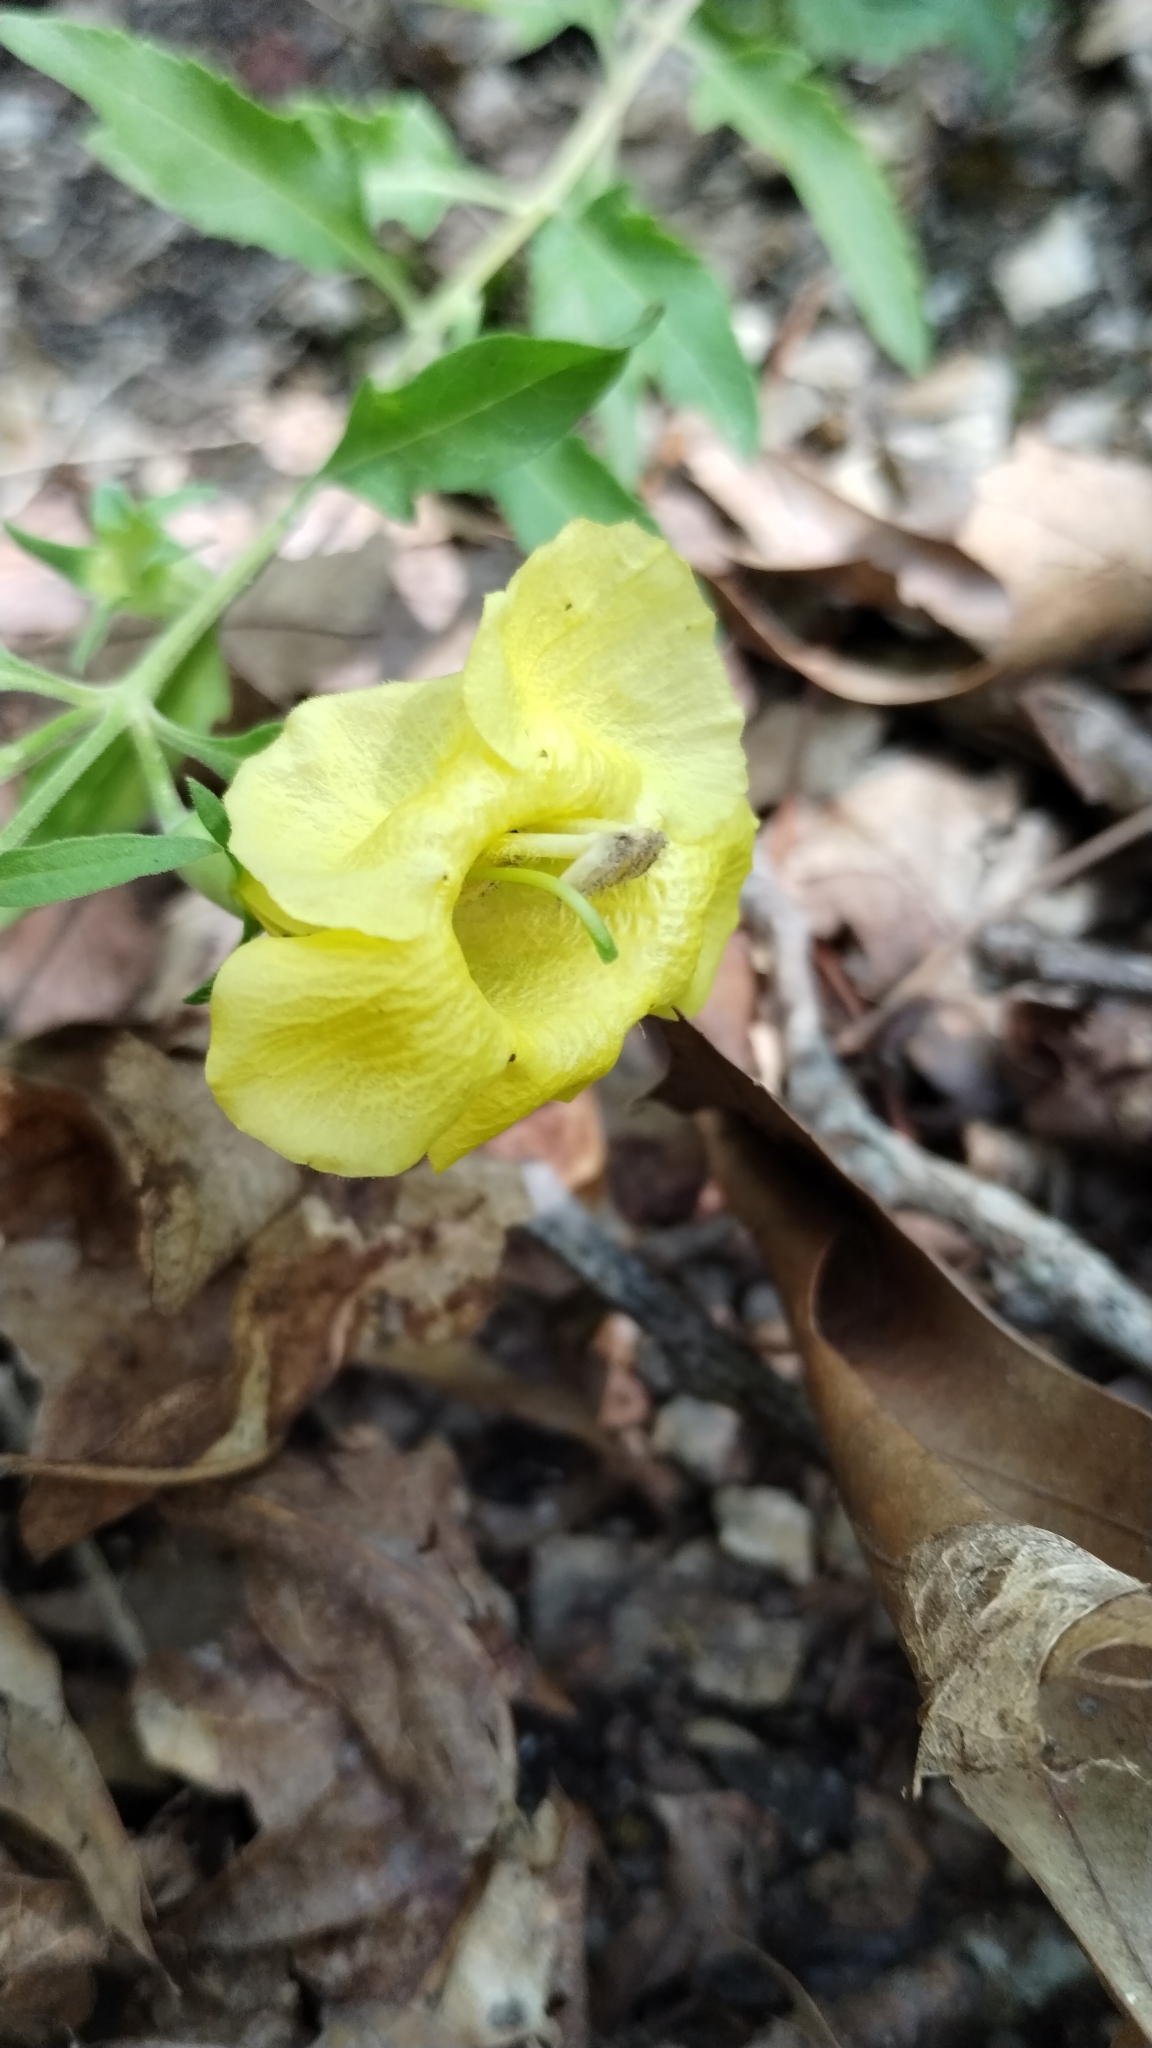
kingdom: Plantae
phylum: Tracheophyta
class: Magnoliopsida
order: Lamiales
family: Orobanchaceae
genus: Aureolaria
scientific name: Aureolaria grandiflora
